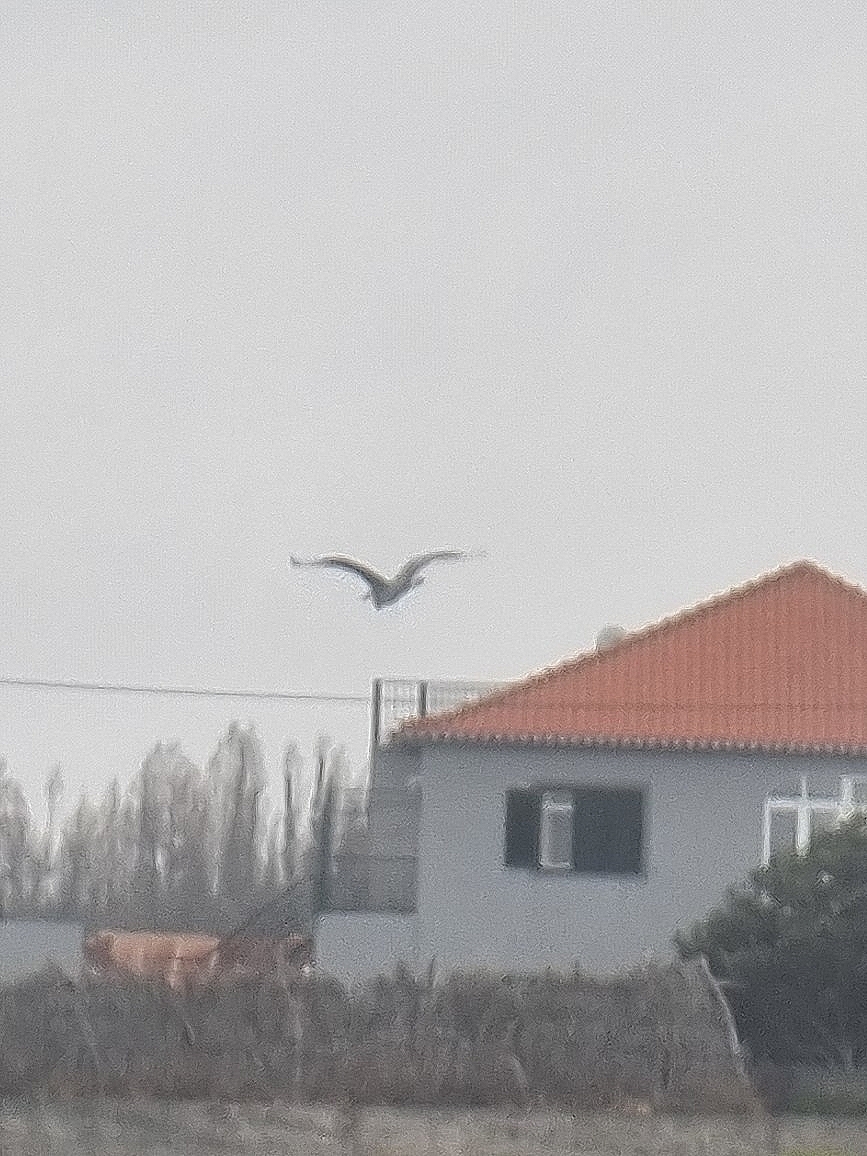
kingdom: Animalia
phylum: Chordata
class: Aves
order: Pelecaniformes
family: Ardeidae
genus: Ardea
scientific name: Ardea cinerea
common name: Grey heron
